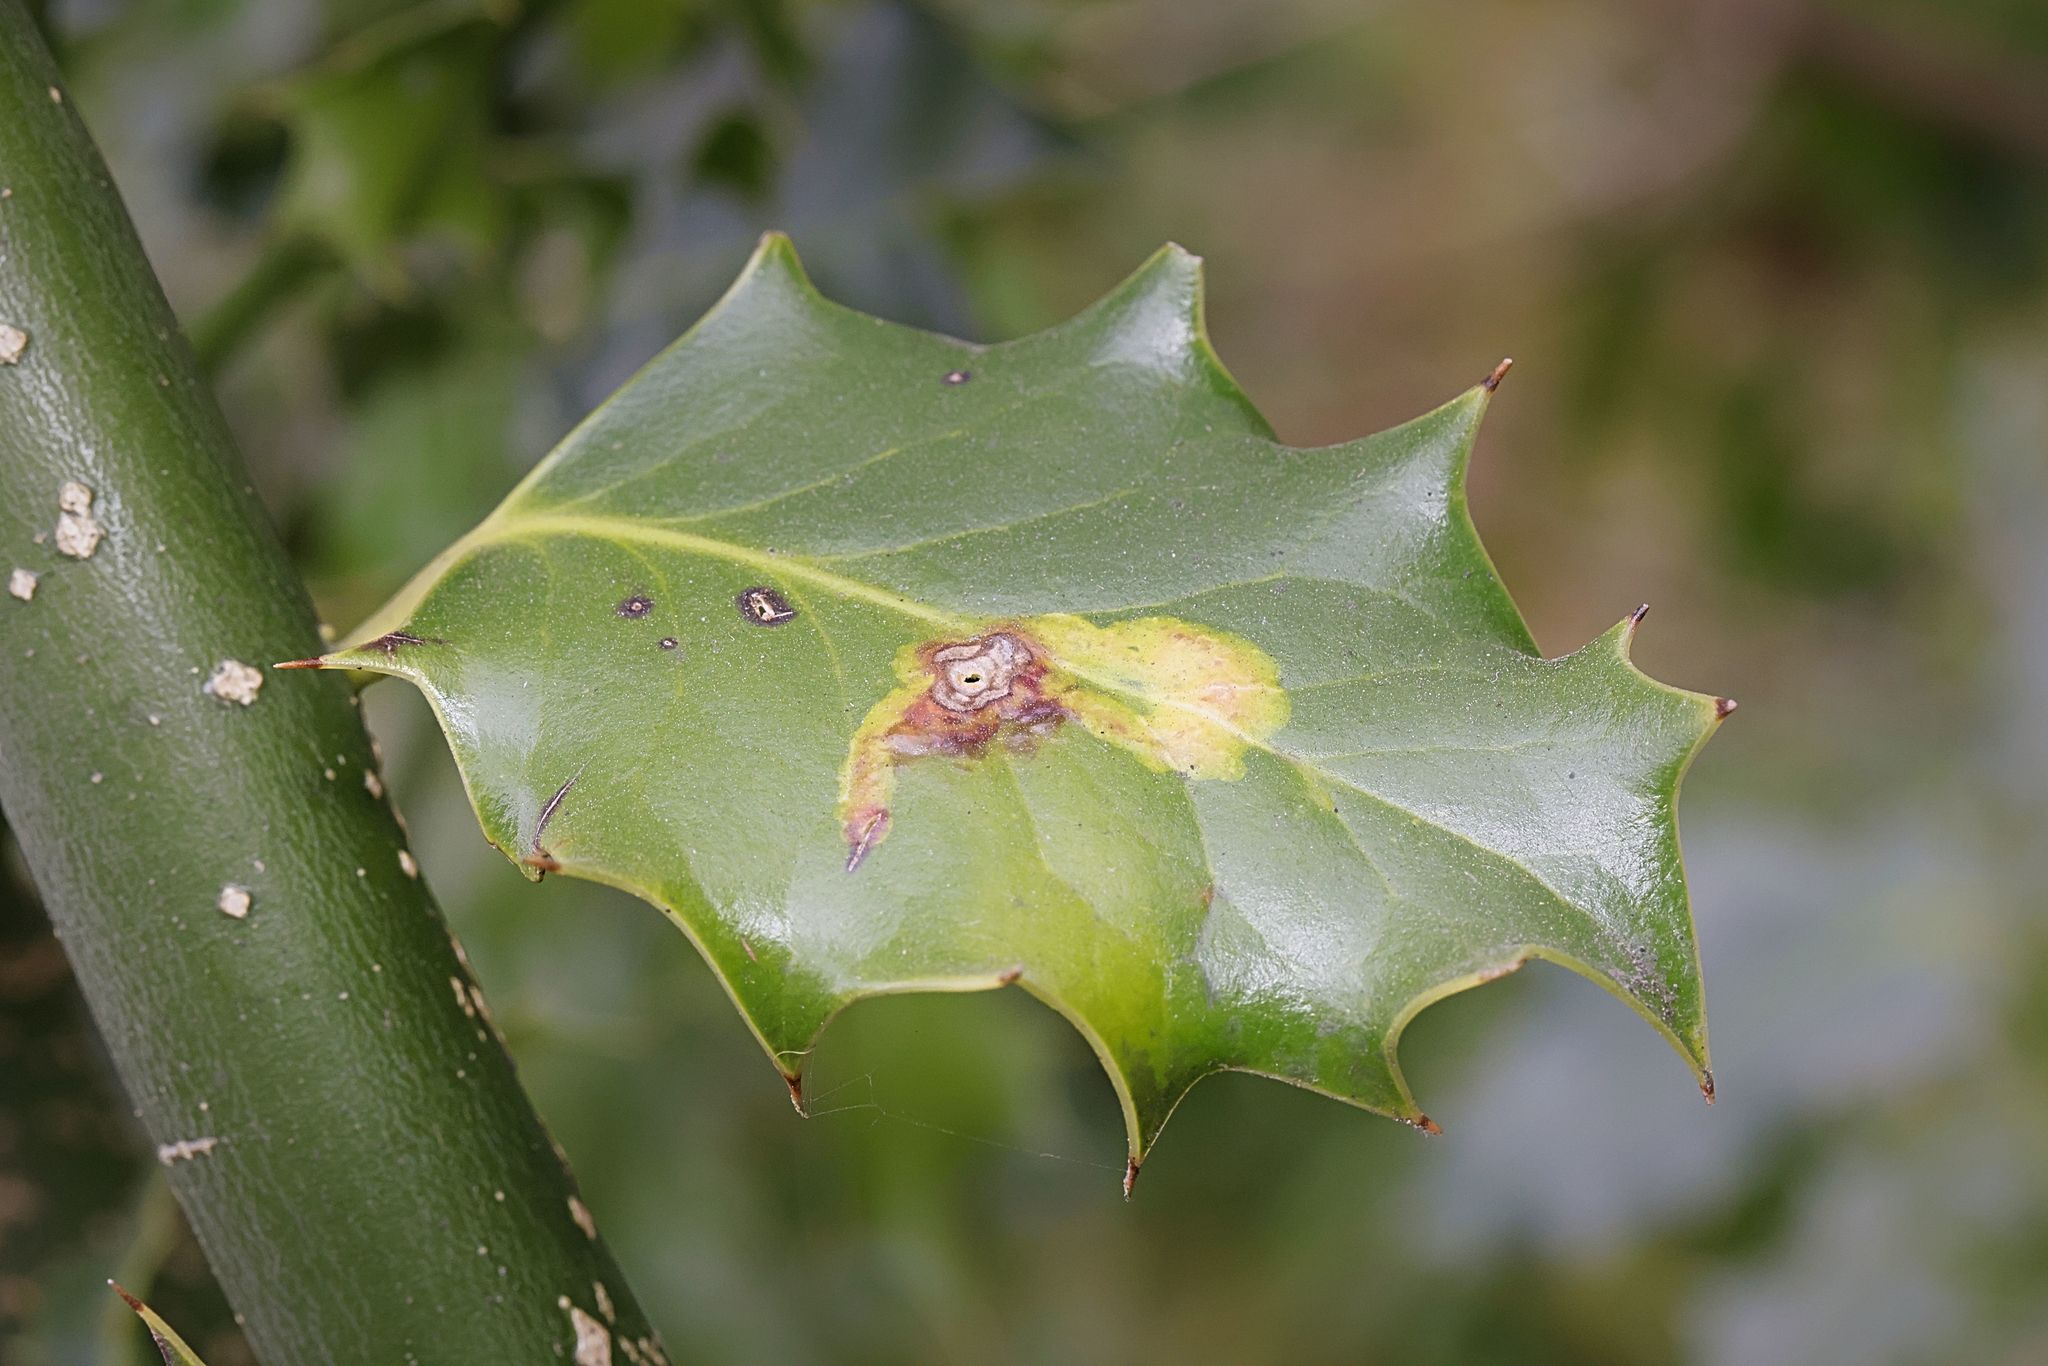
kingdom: Animalia
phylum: Arthropoda
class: Insecta
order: Diptera
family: Agromyzidae
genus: Phytomyza
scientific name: Phytomyza ilicis
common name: Holly leafminer
